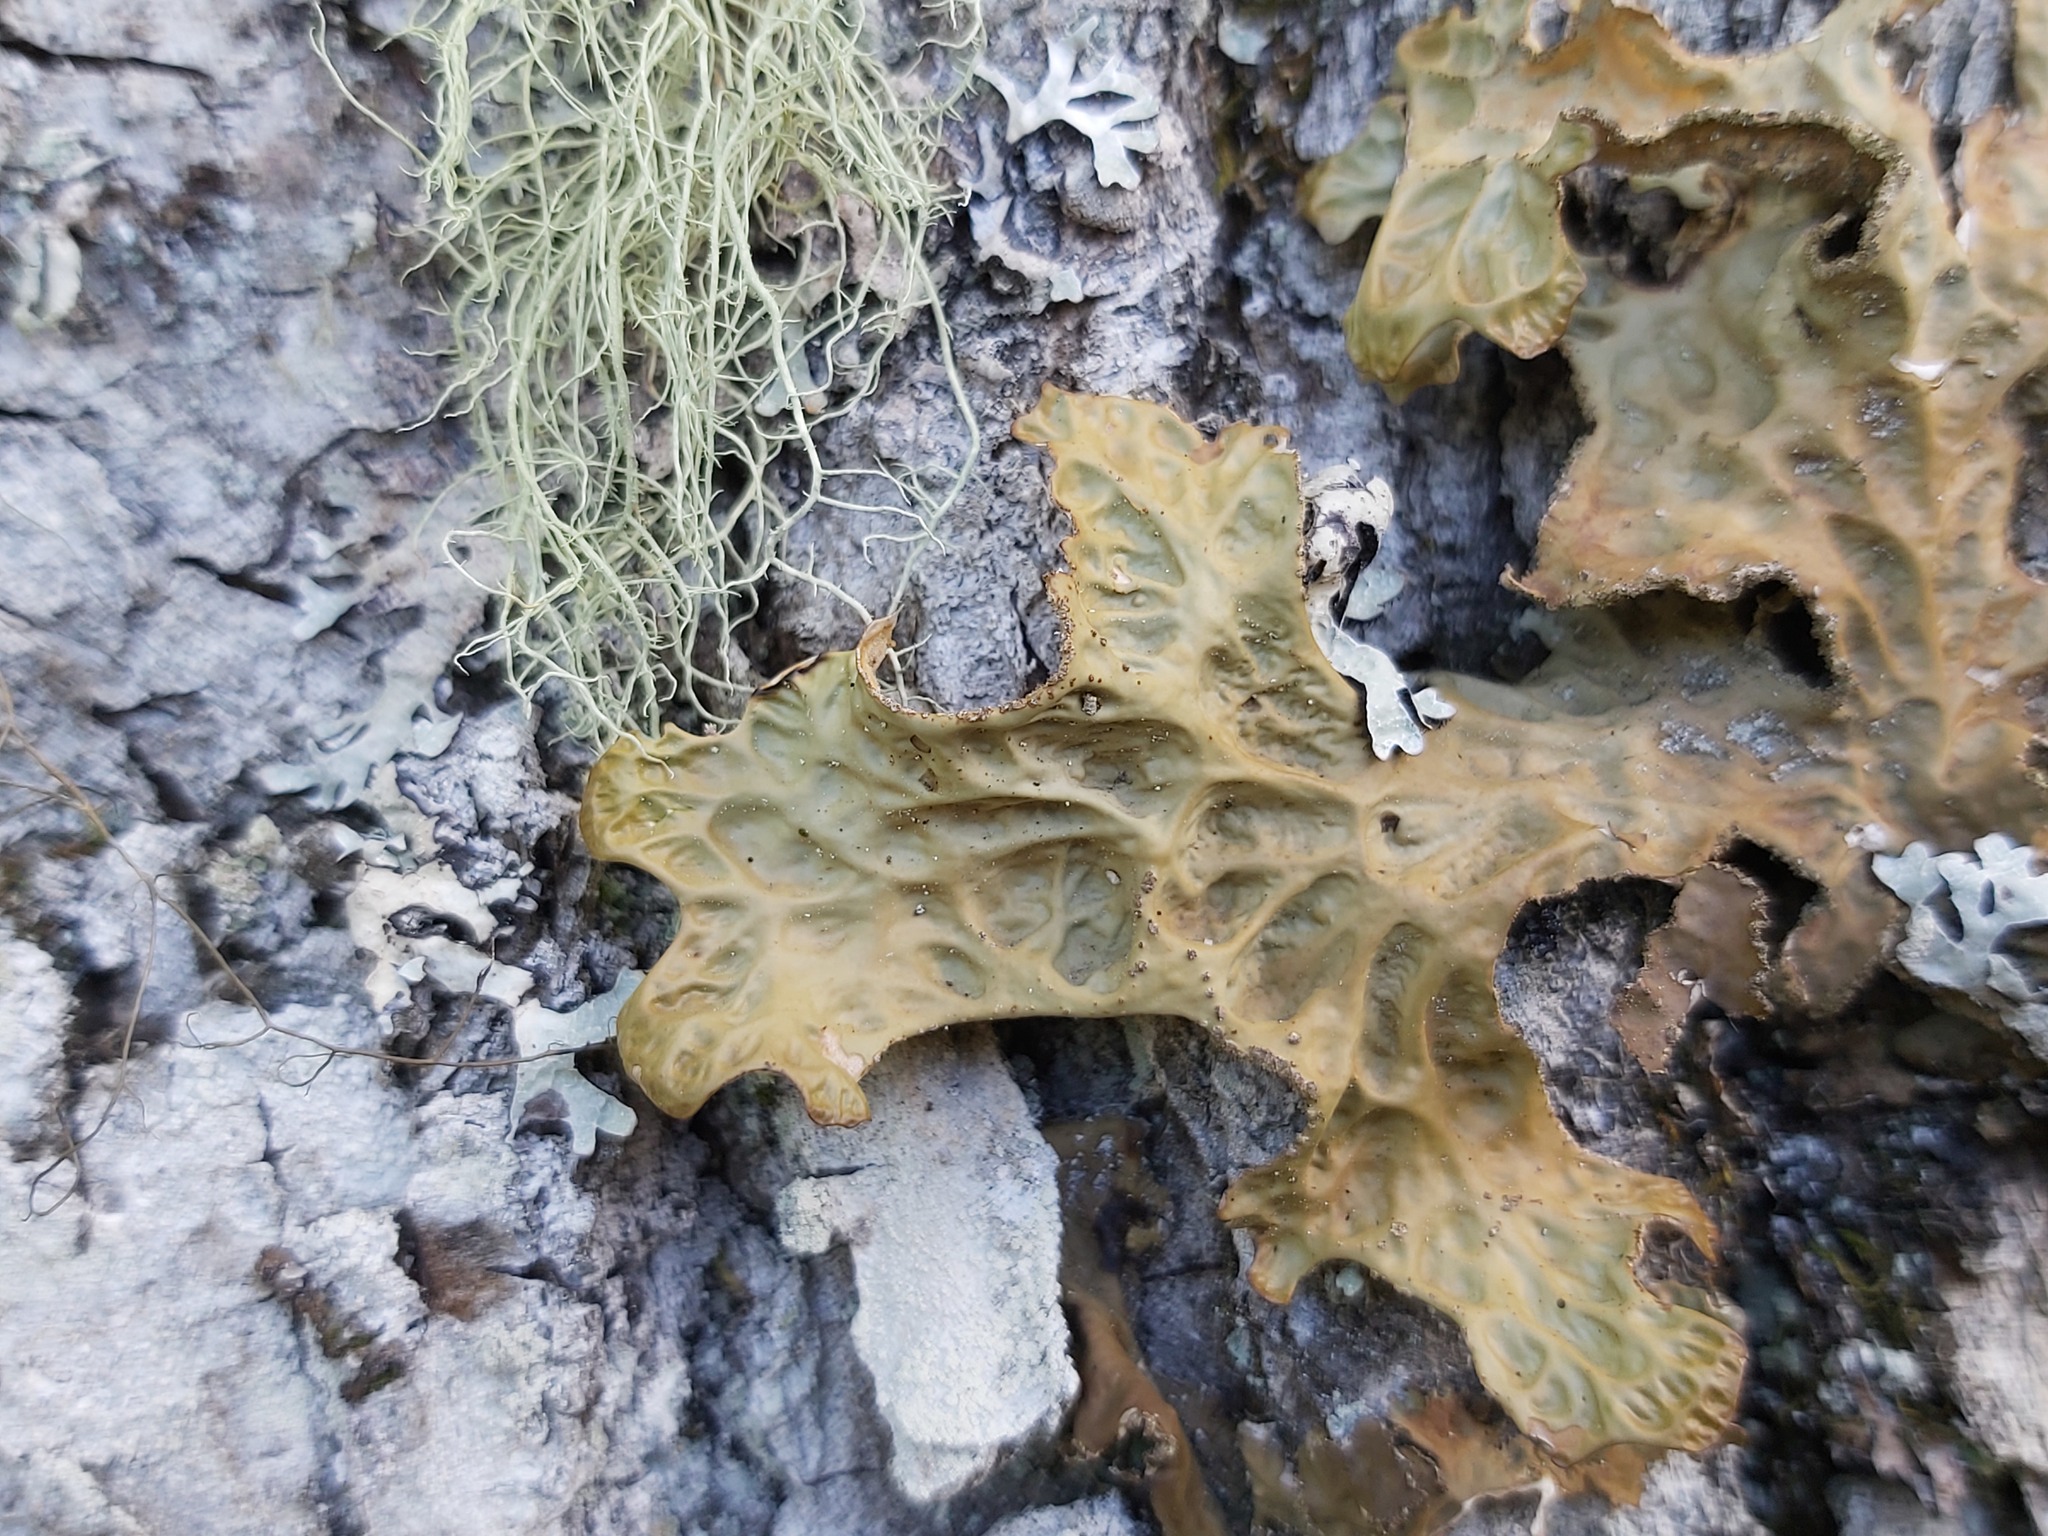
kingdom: Fungi
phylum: Ascomycota
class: Lecanoromycetes
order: Peltigerales
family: Lobariaceae
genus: Lobaria
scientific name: Lobaria pulmonaria
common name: Lungwort
